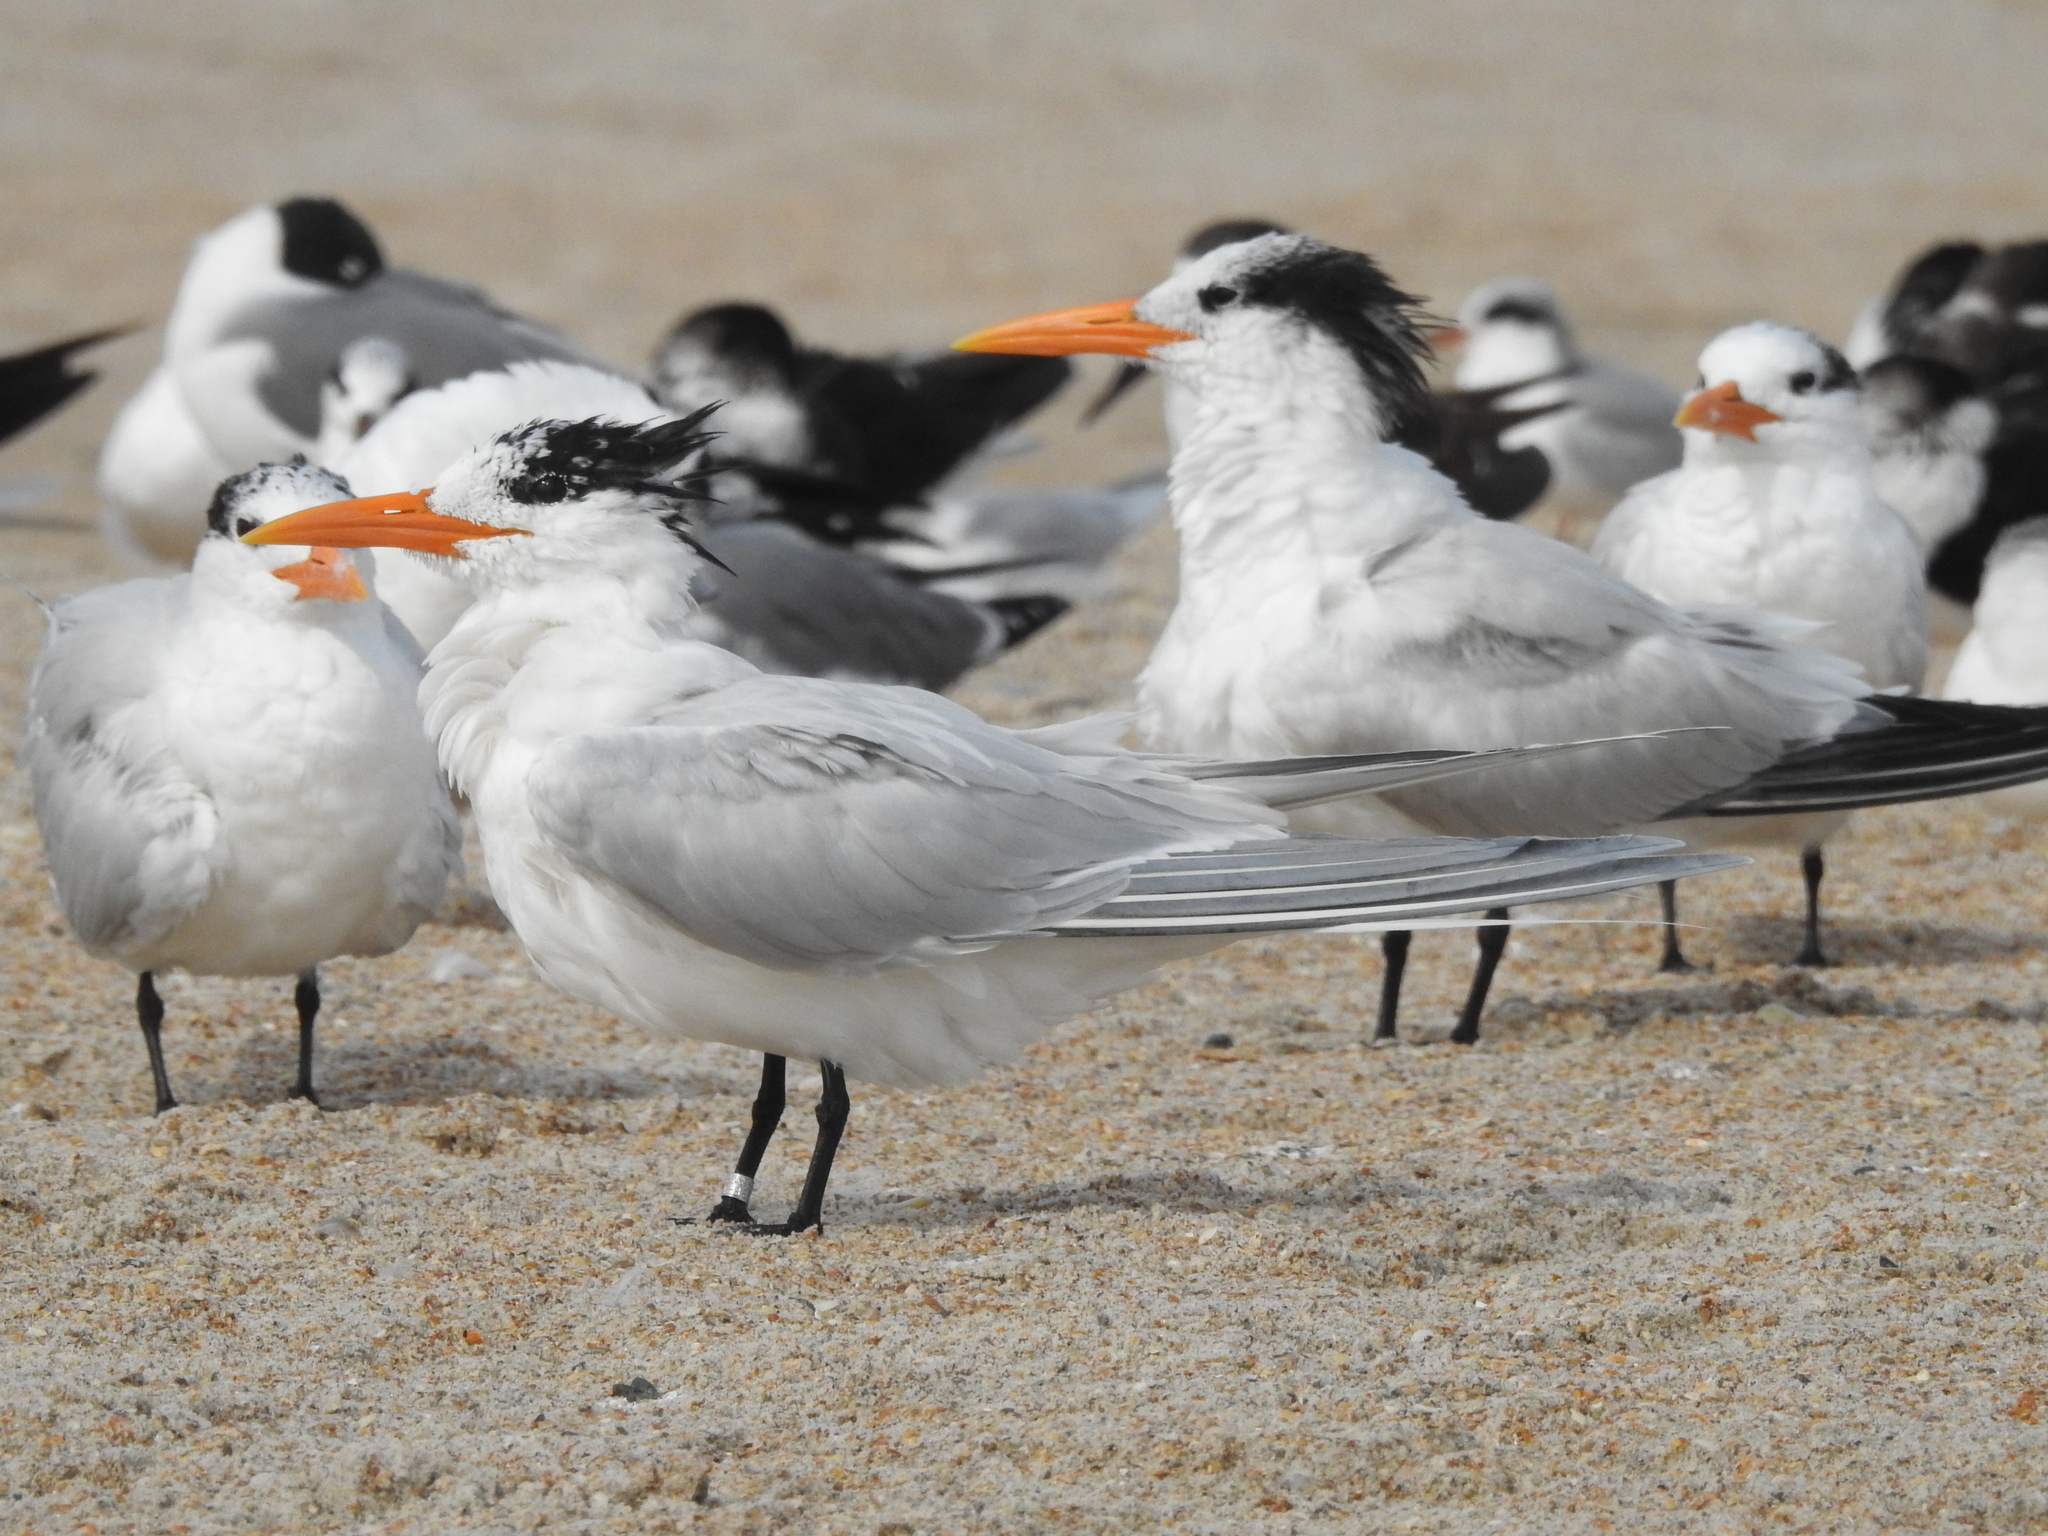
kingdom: Animalia
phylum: Chordata
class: Aves
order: Charadriiformes
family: Laridae
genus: Thalasseus
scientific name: Thalasseus maximus
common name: Royal tern
